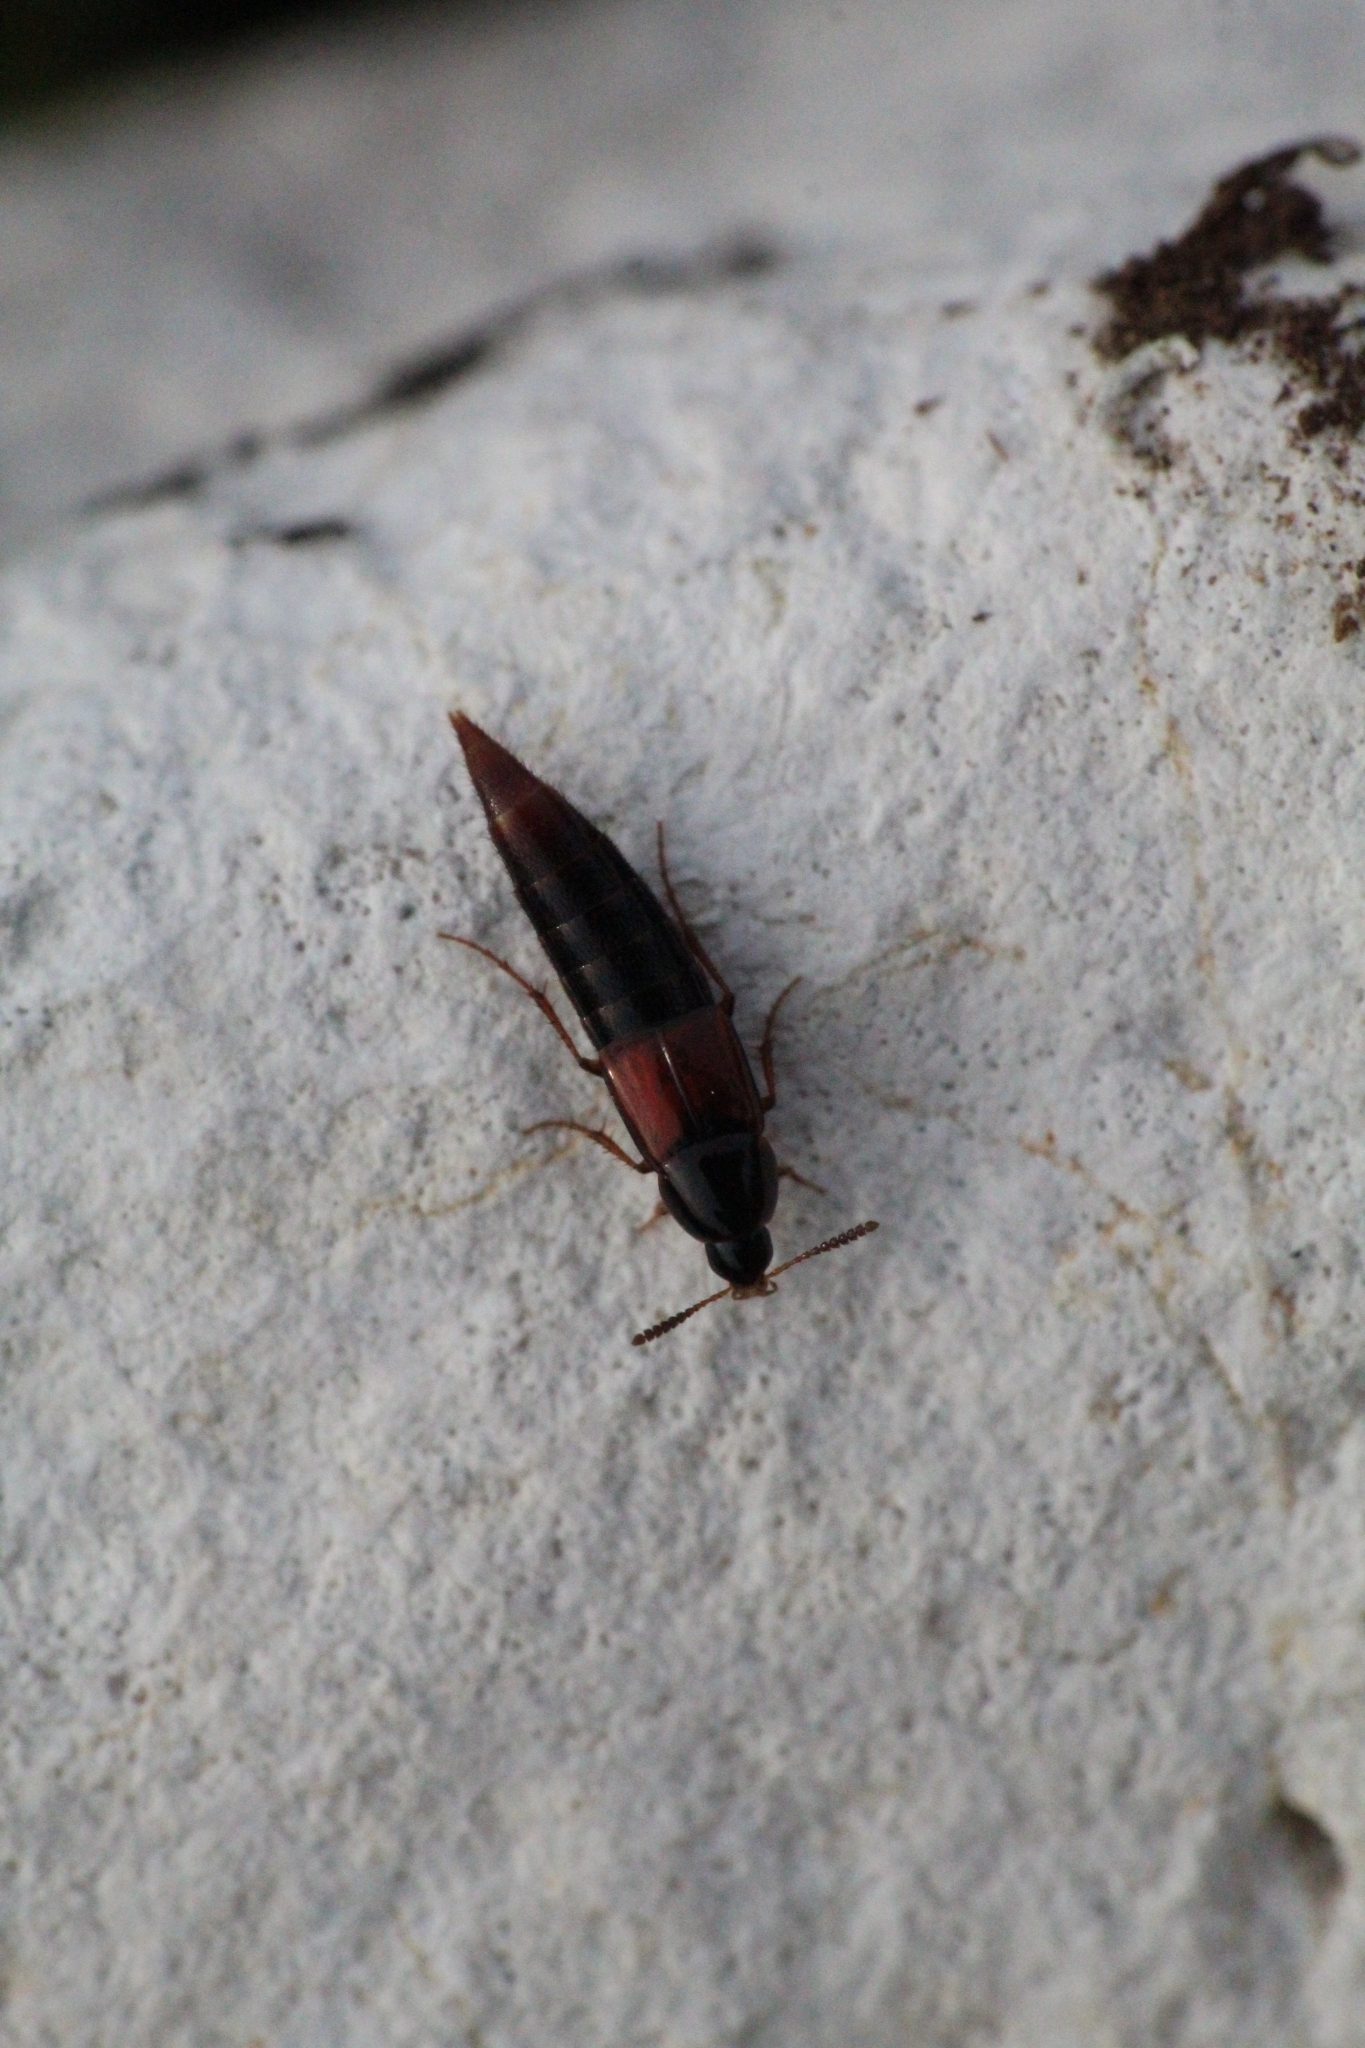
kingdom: Animalia
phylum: Arthropoda
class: Insecta
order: Coleoptera
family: Staphylinidae
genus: Bolitobius
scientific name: Bolitobius castaneus
